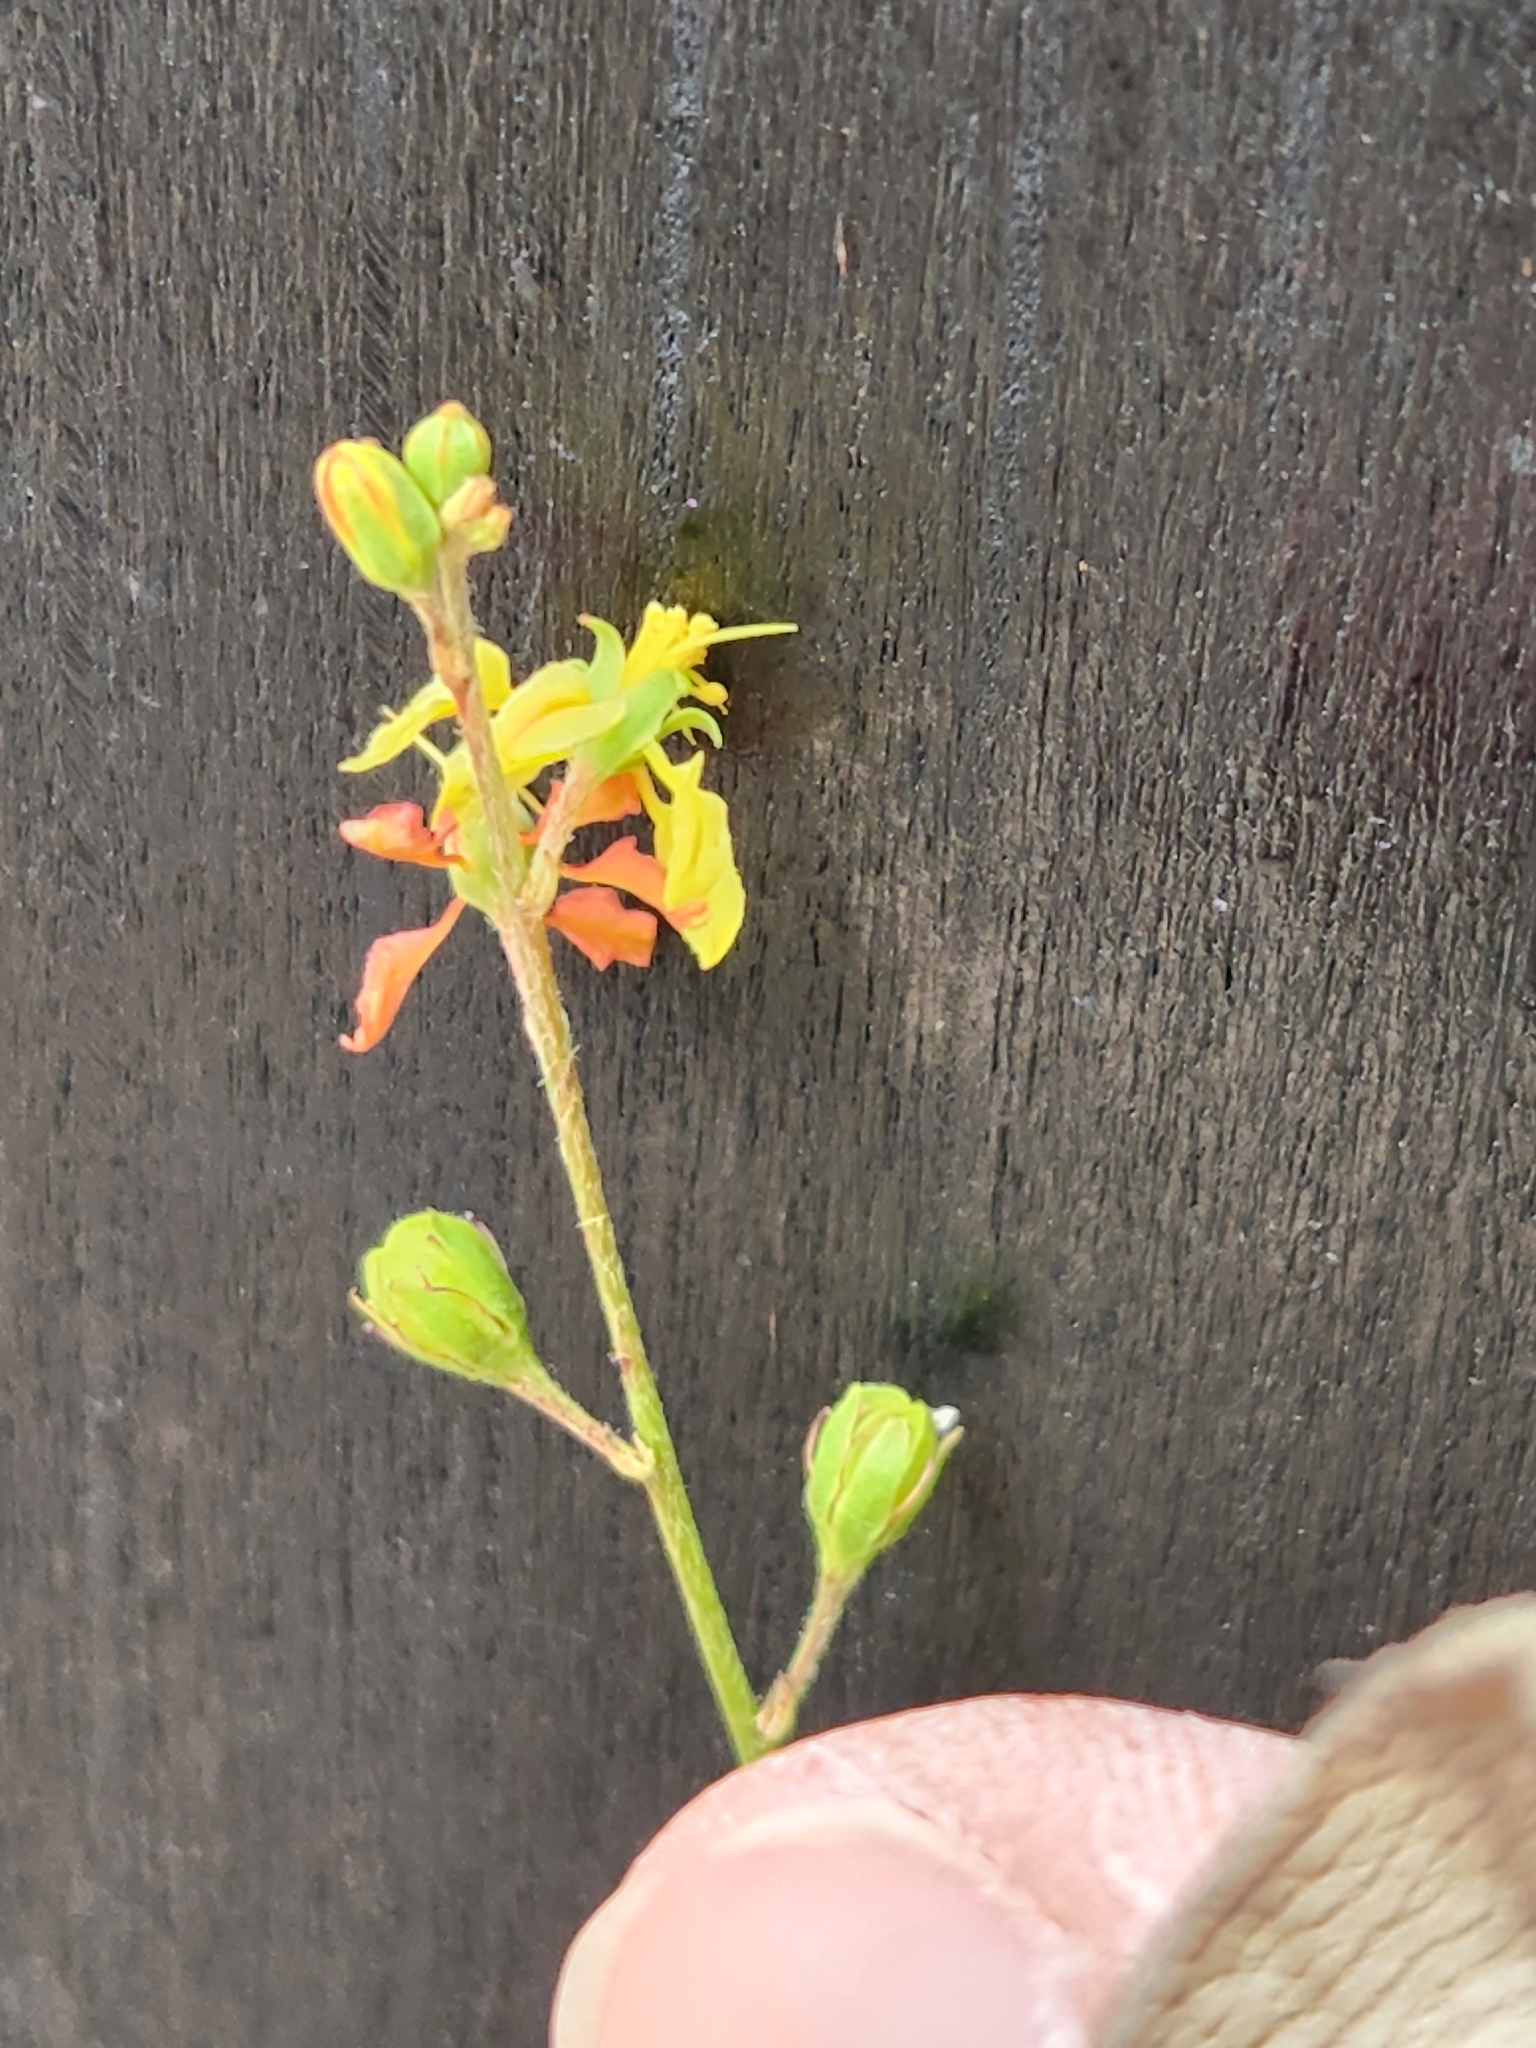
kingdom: Plantae
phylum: Tracheophyta
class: Magnoliopsida
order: Malpighiales
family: Malpighiaceae
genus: Galphimia
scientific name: Galphimia angustifolia
